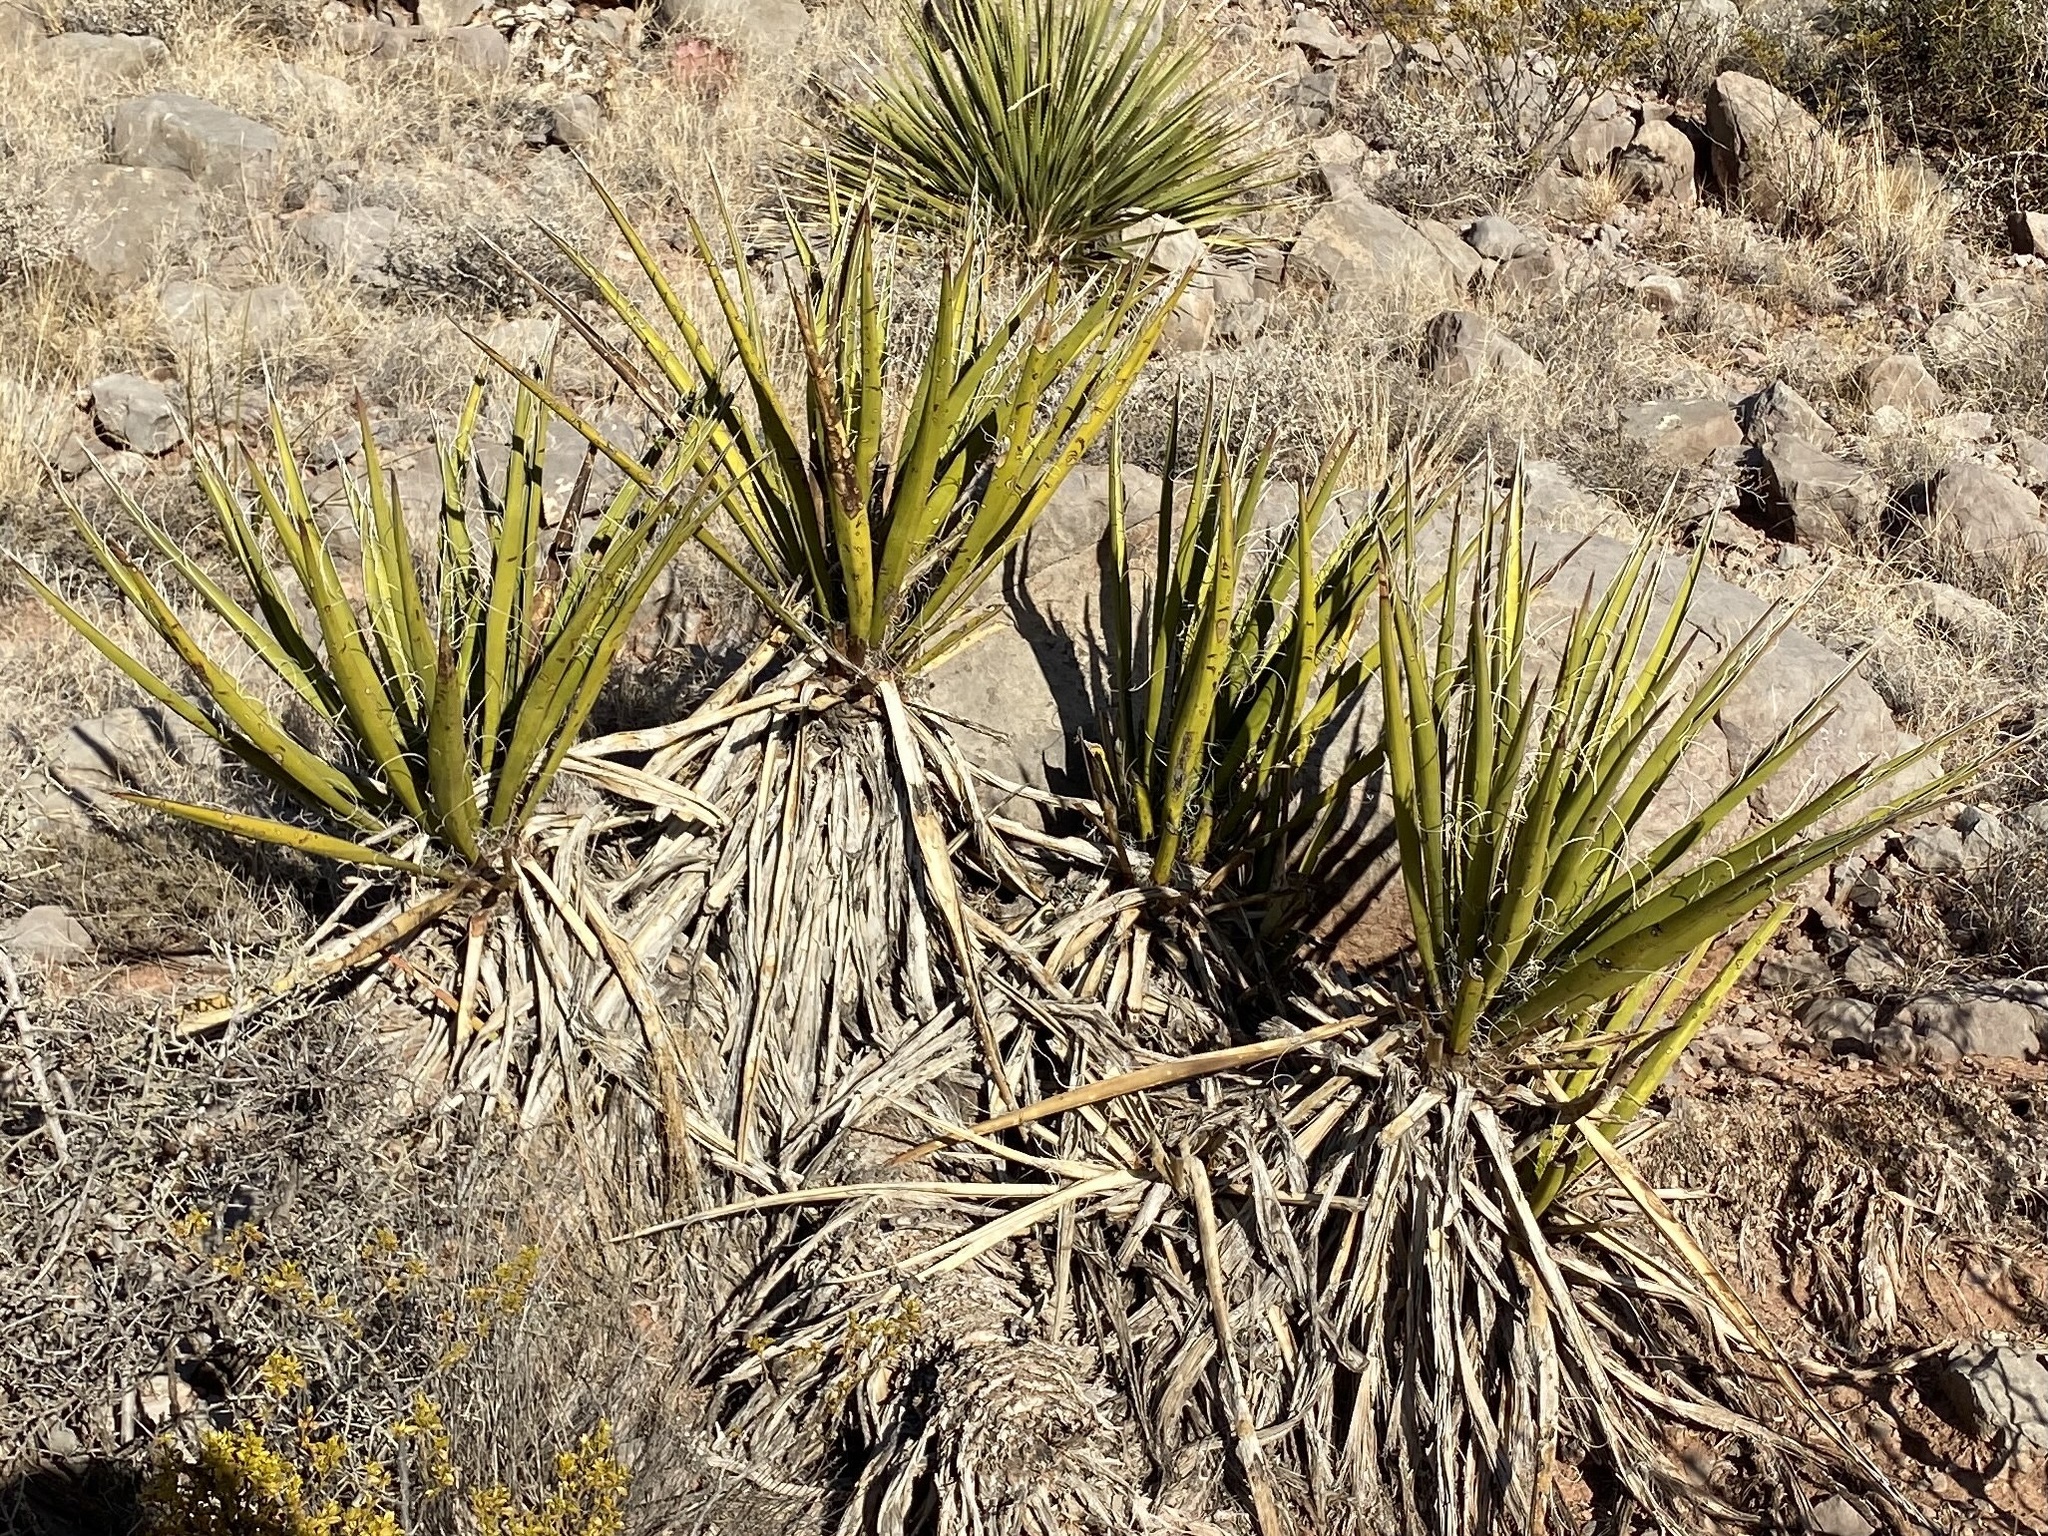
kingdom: Plantae
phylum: Tracheophyta
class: Liliopsida
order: Asparagales
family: Asparagaceae
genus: Yucca
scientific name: Yucca baccata
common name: Banana yucca
